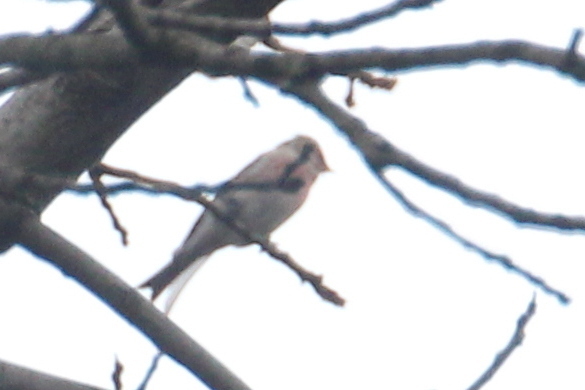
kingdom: Animalia
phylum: Chordata
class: Aves
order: Passeriformes
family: Fringillidae
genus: Linaria
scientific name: Linaria cannabina
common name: Common linnet
